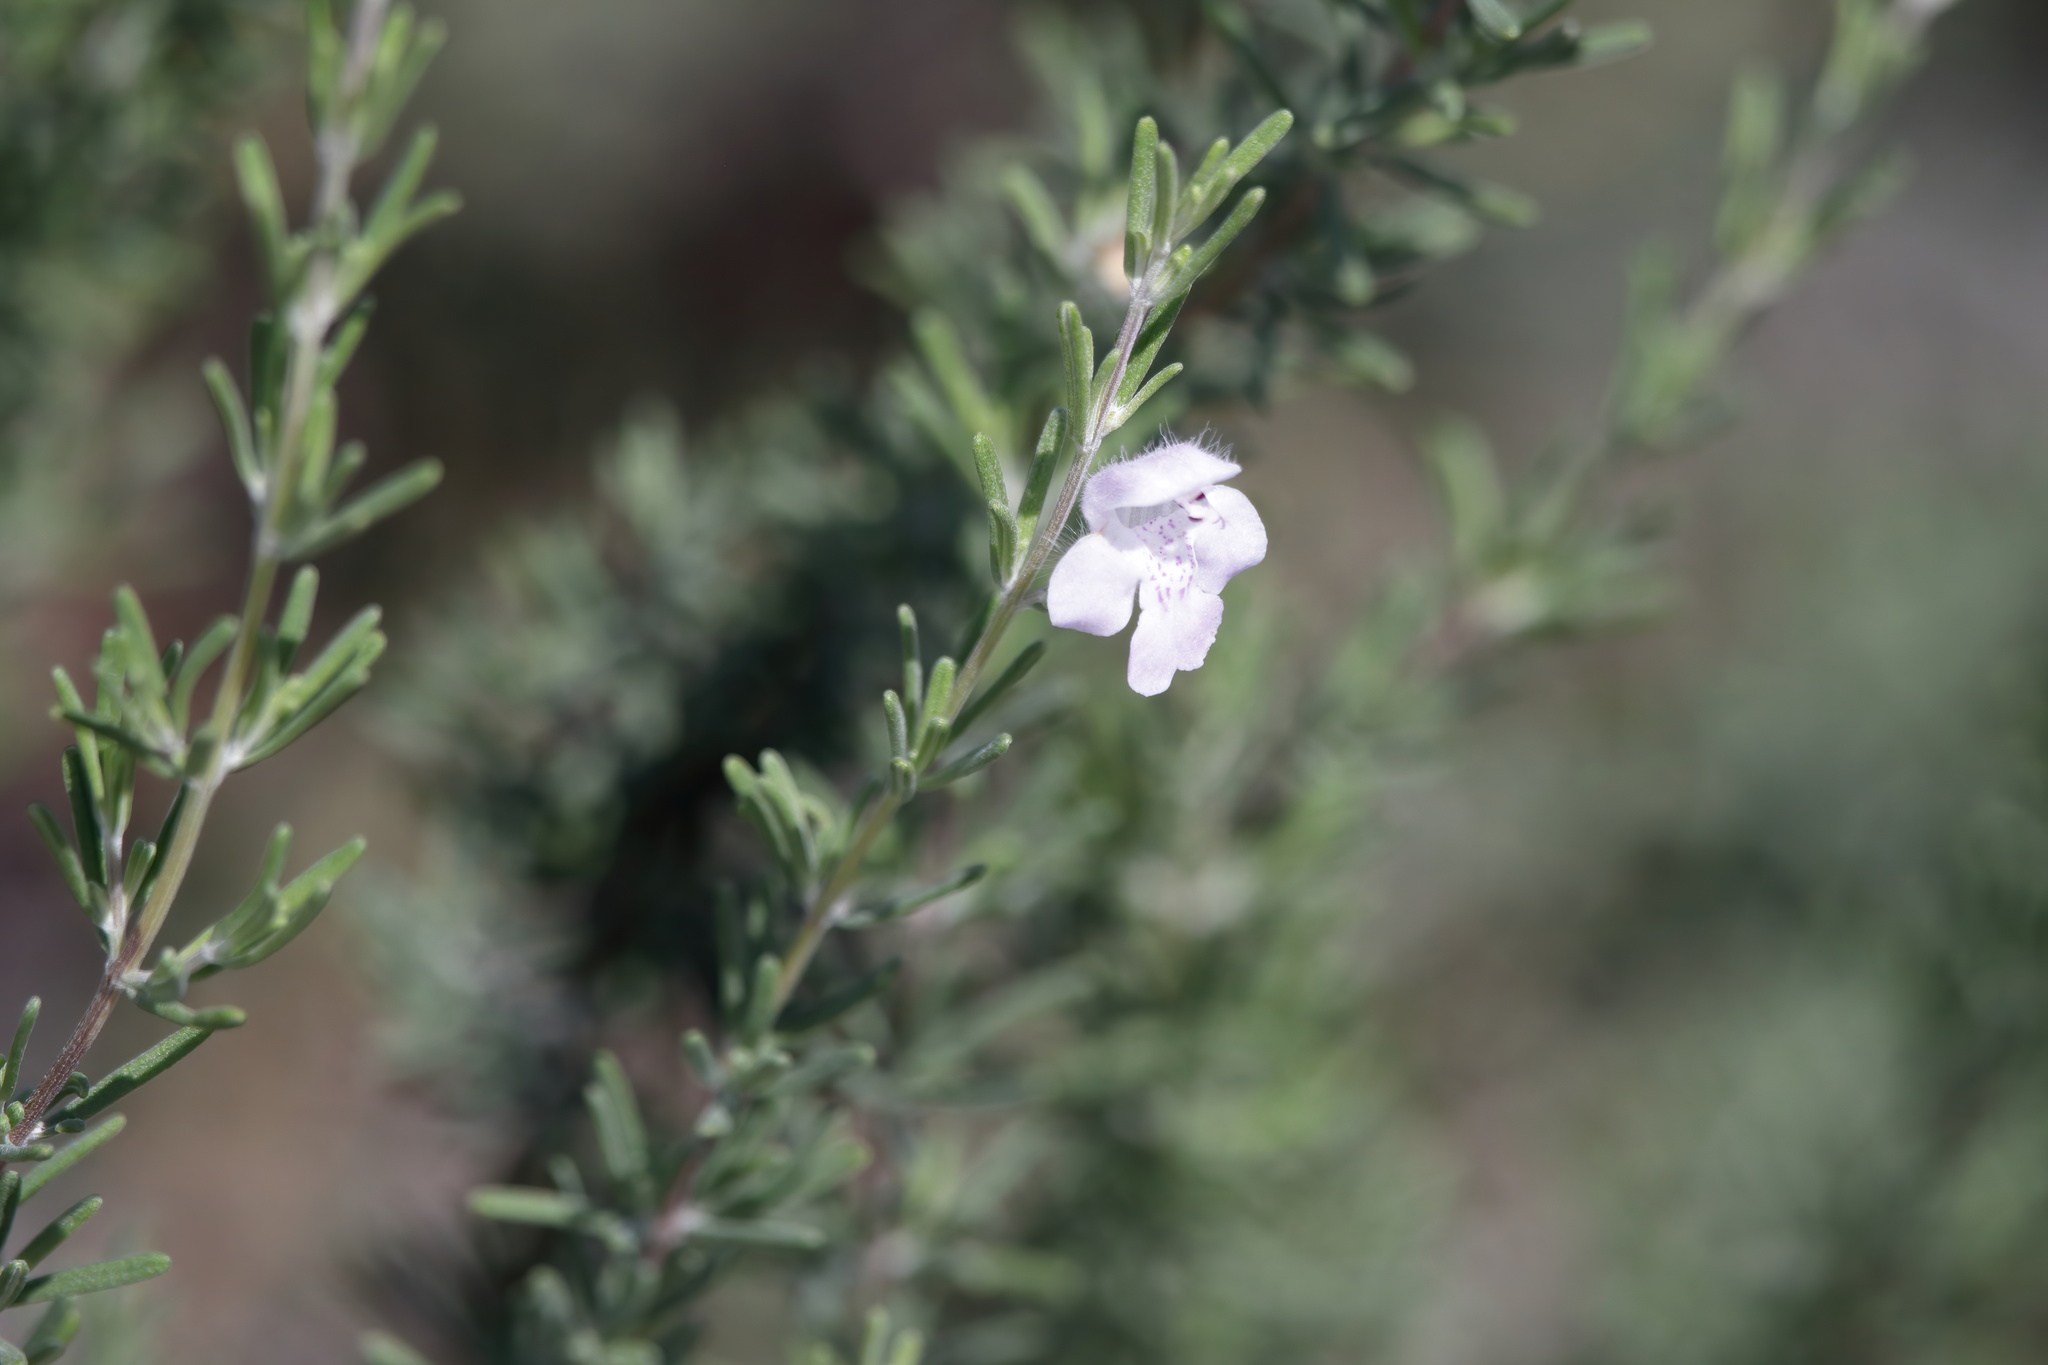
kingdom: Plantae
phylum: Tracheophyta
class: Magnoliopsida
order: Lamiales
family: Lamiaceae
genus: Conradina
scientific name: Conradina canescens
